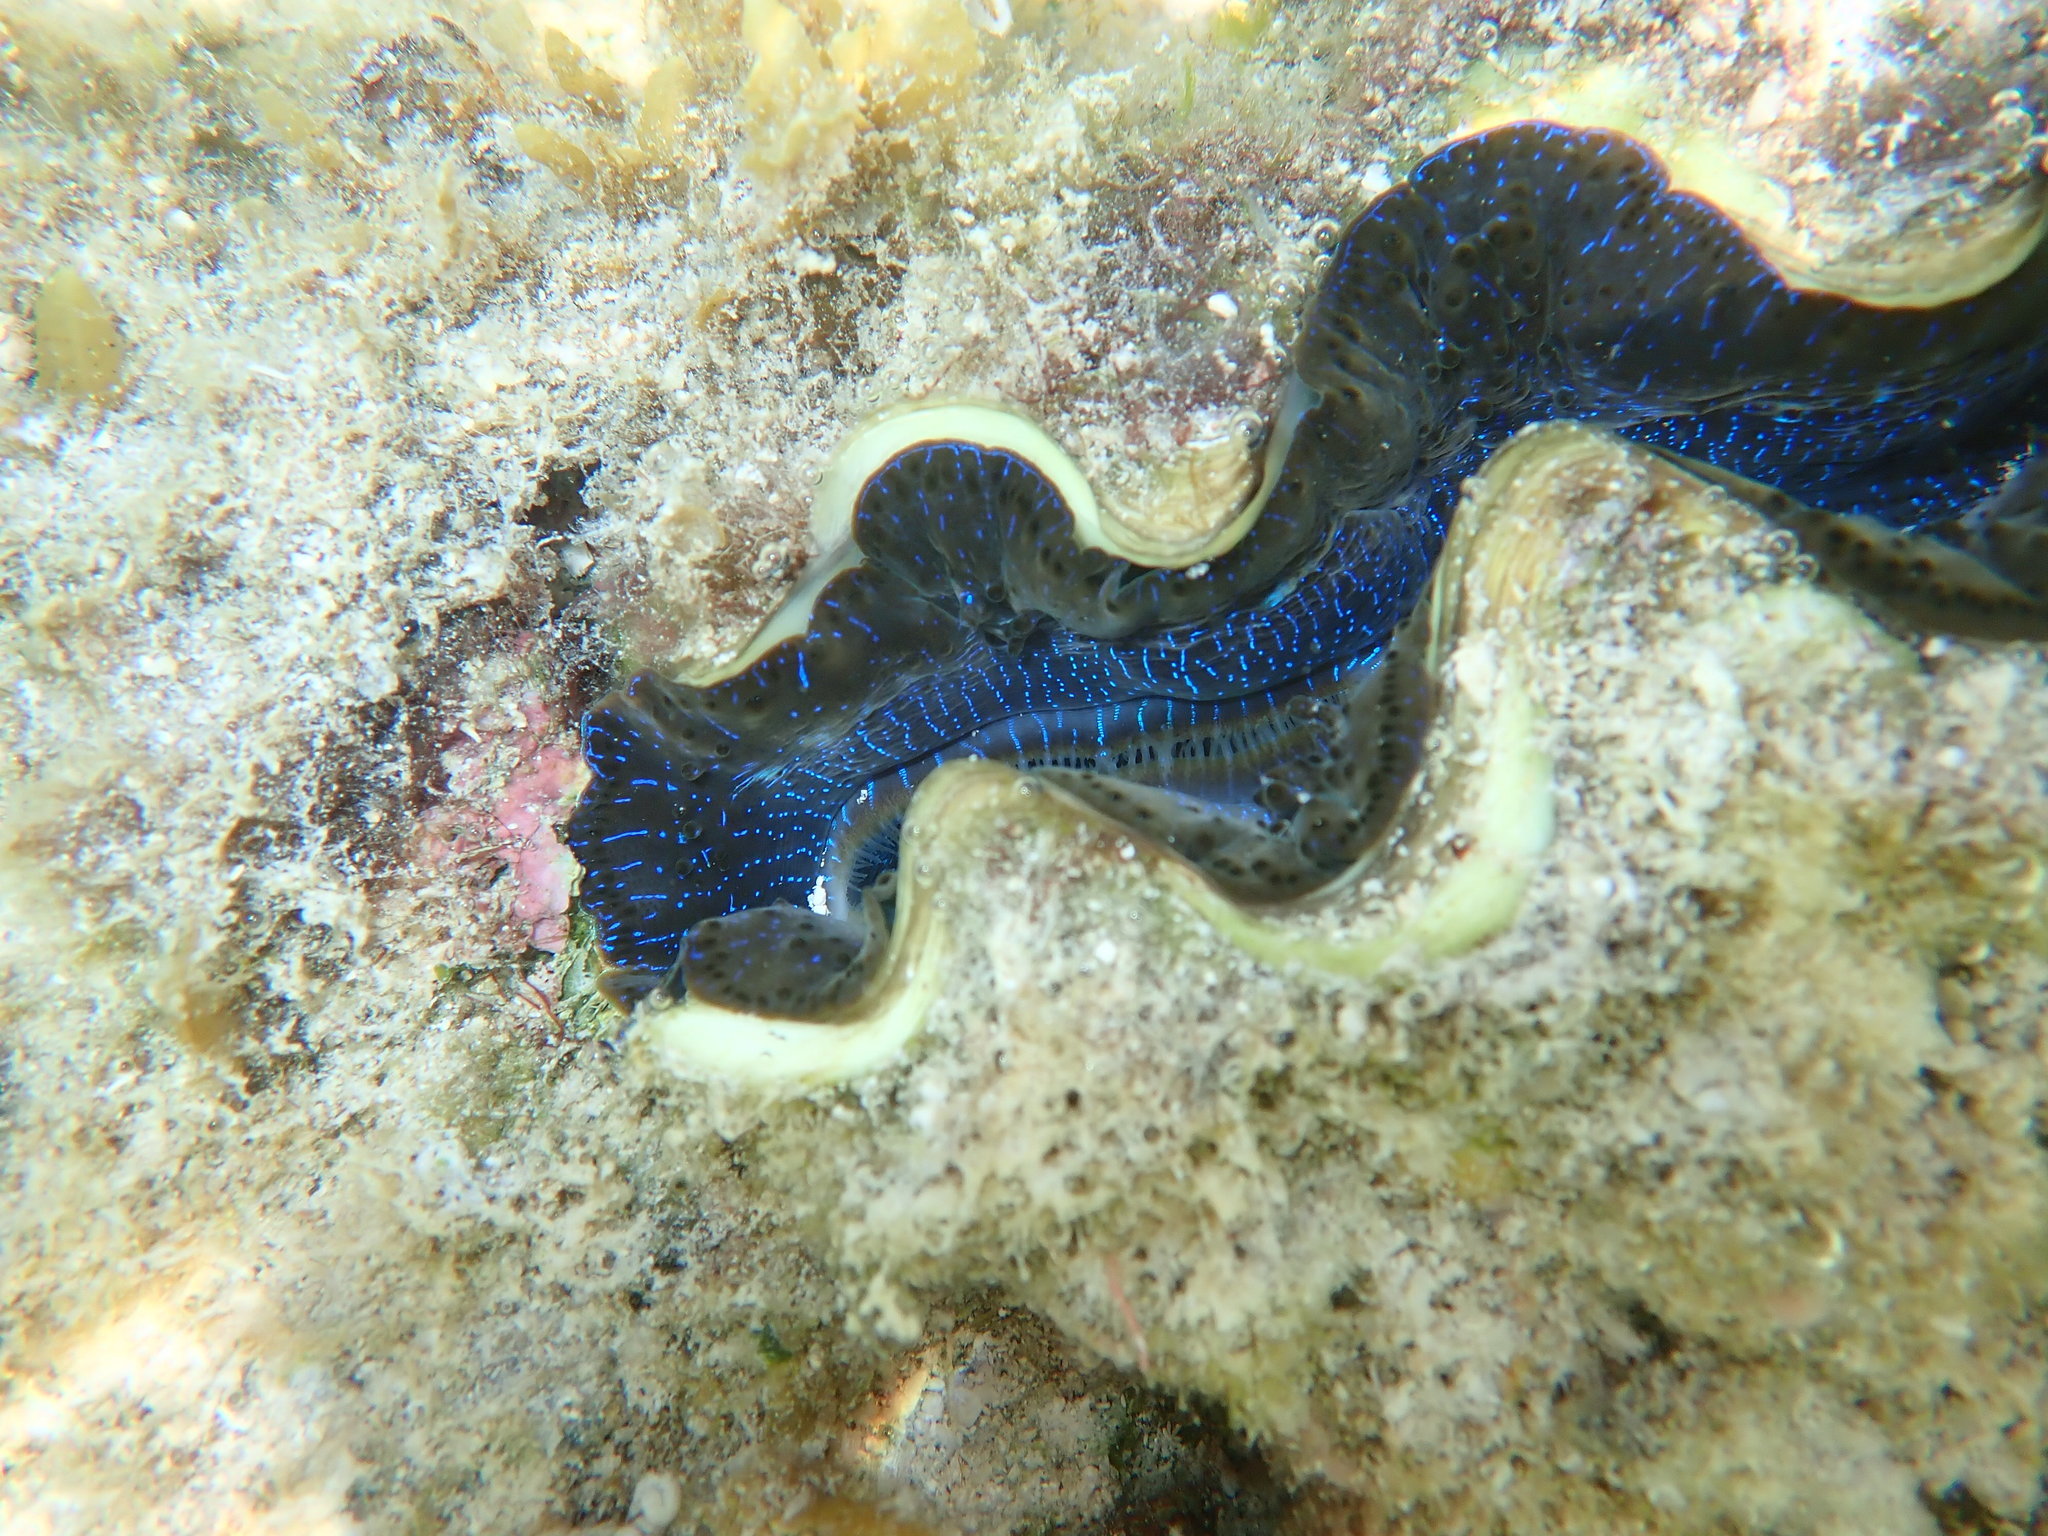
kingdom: Animalia
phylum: Mollusca
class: Bivalvia
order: Cardiida
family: Cardiidae
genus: Tridacna
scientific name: Tridacna maxima
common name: Small giant clam
